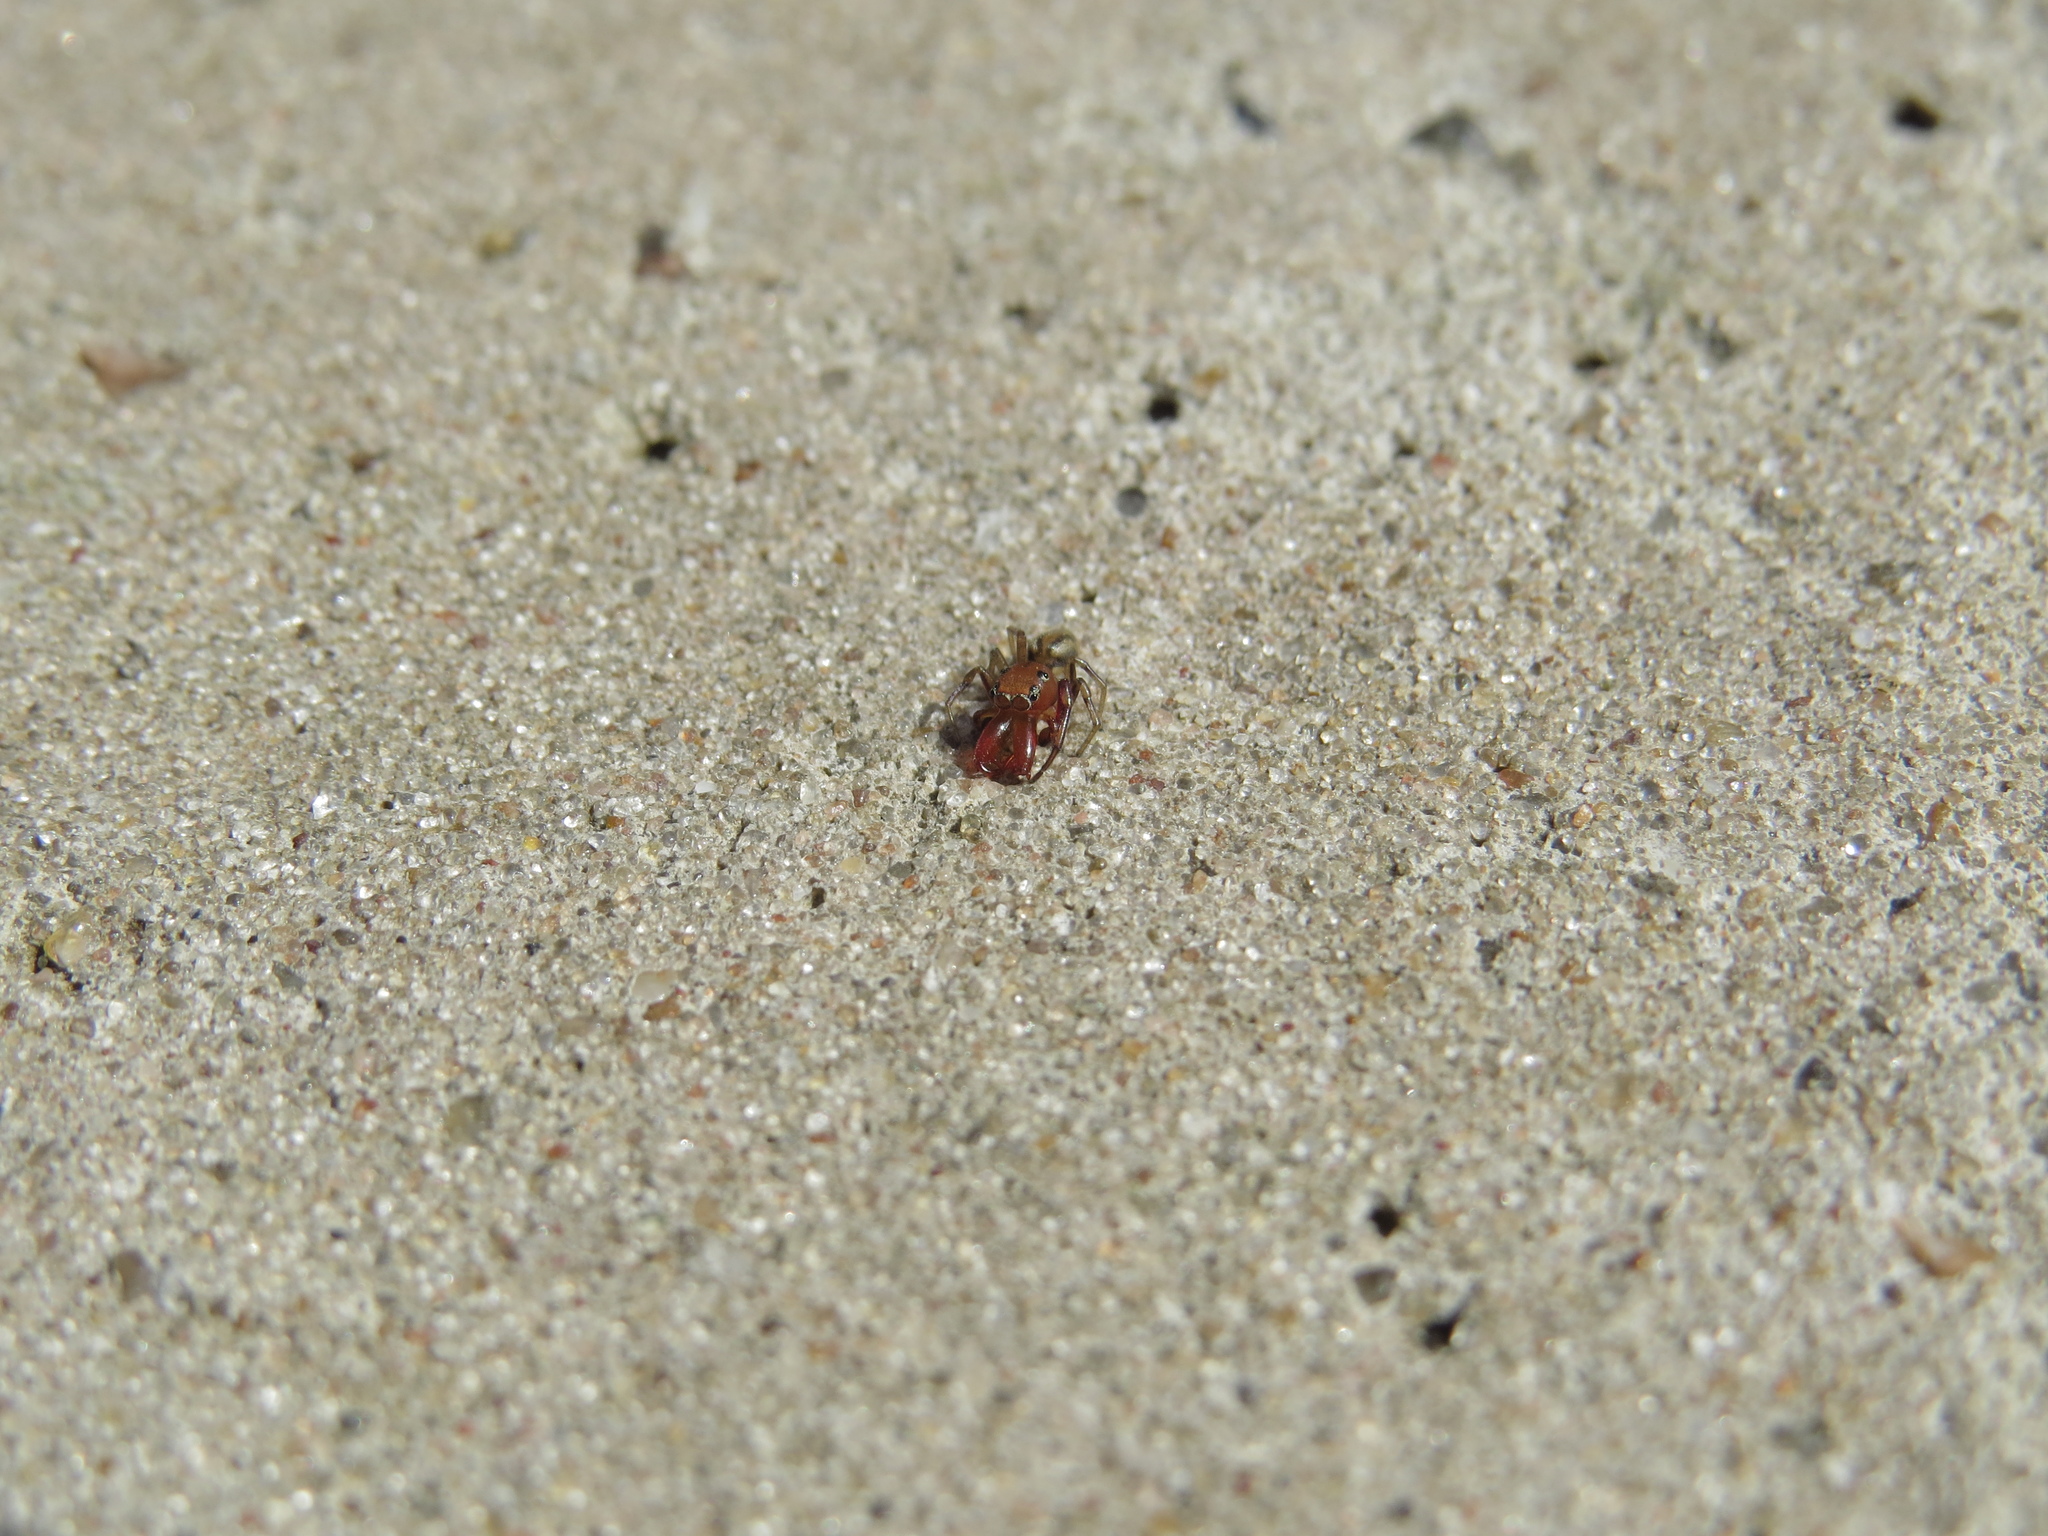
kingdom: Animalia
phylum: Arthropoda
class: Arachnida
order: Araneae
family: Salticidae
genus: Gypogyna
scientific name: Gypogyna forceps
